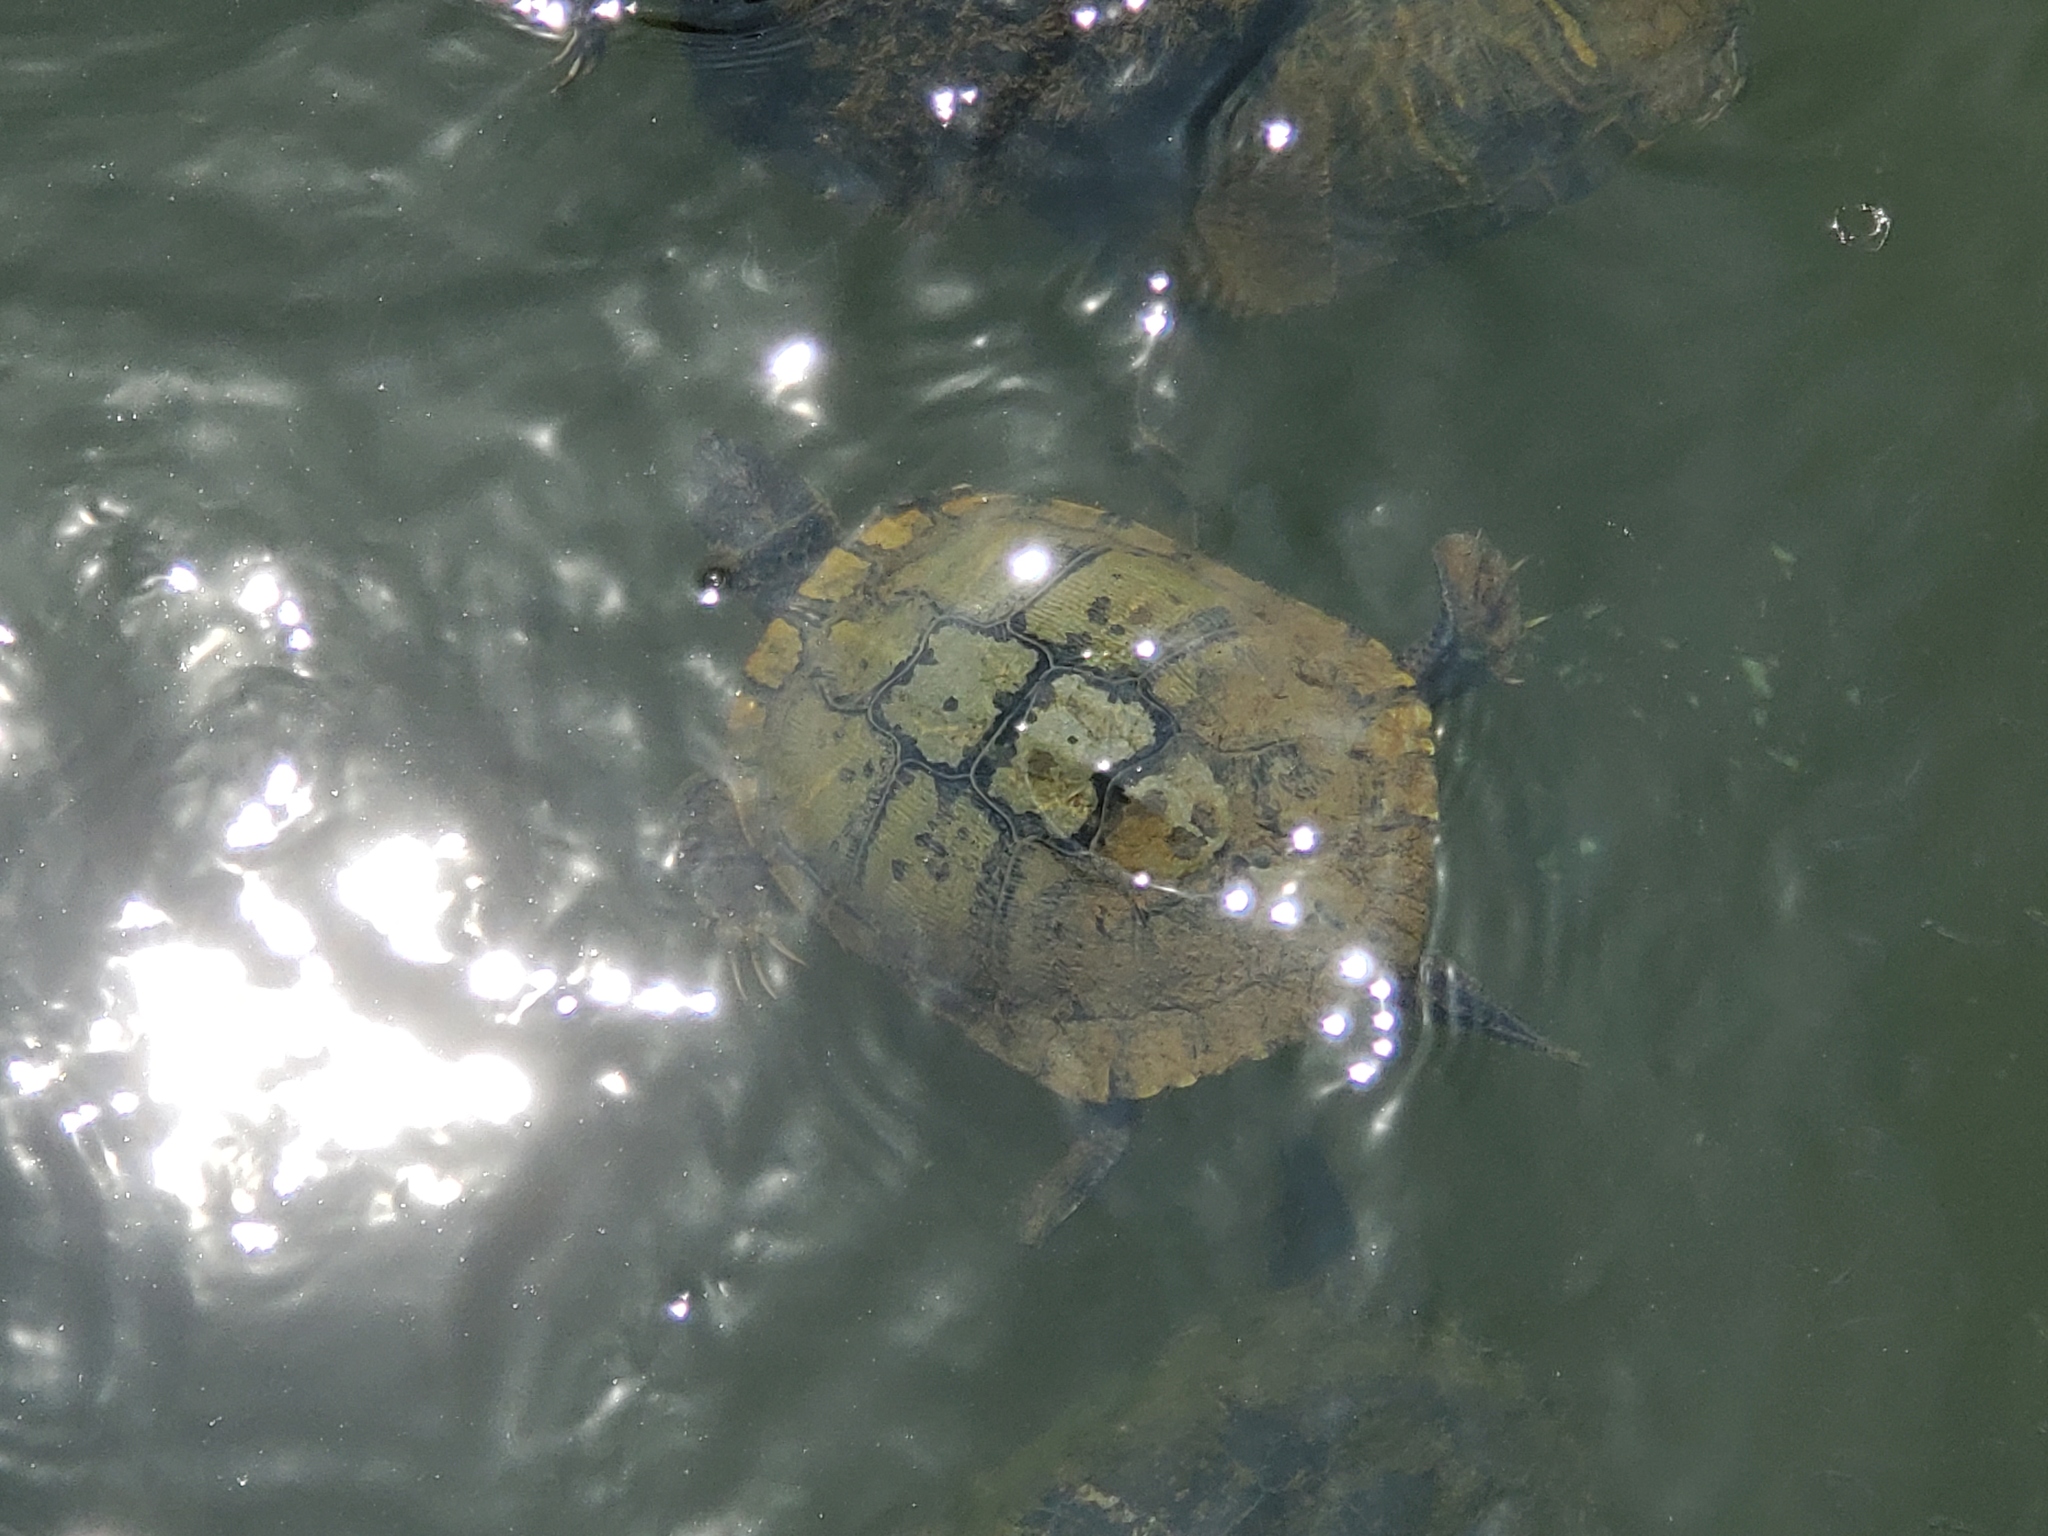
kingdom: Animalia
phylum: Chordata
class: Testudines
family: Emydidae
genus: Trachemys
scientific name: Trachemys scripta
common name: Slider
